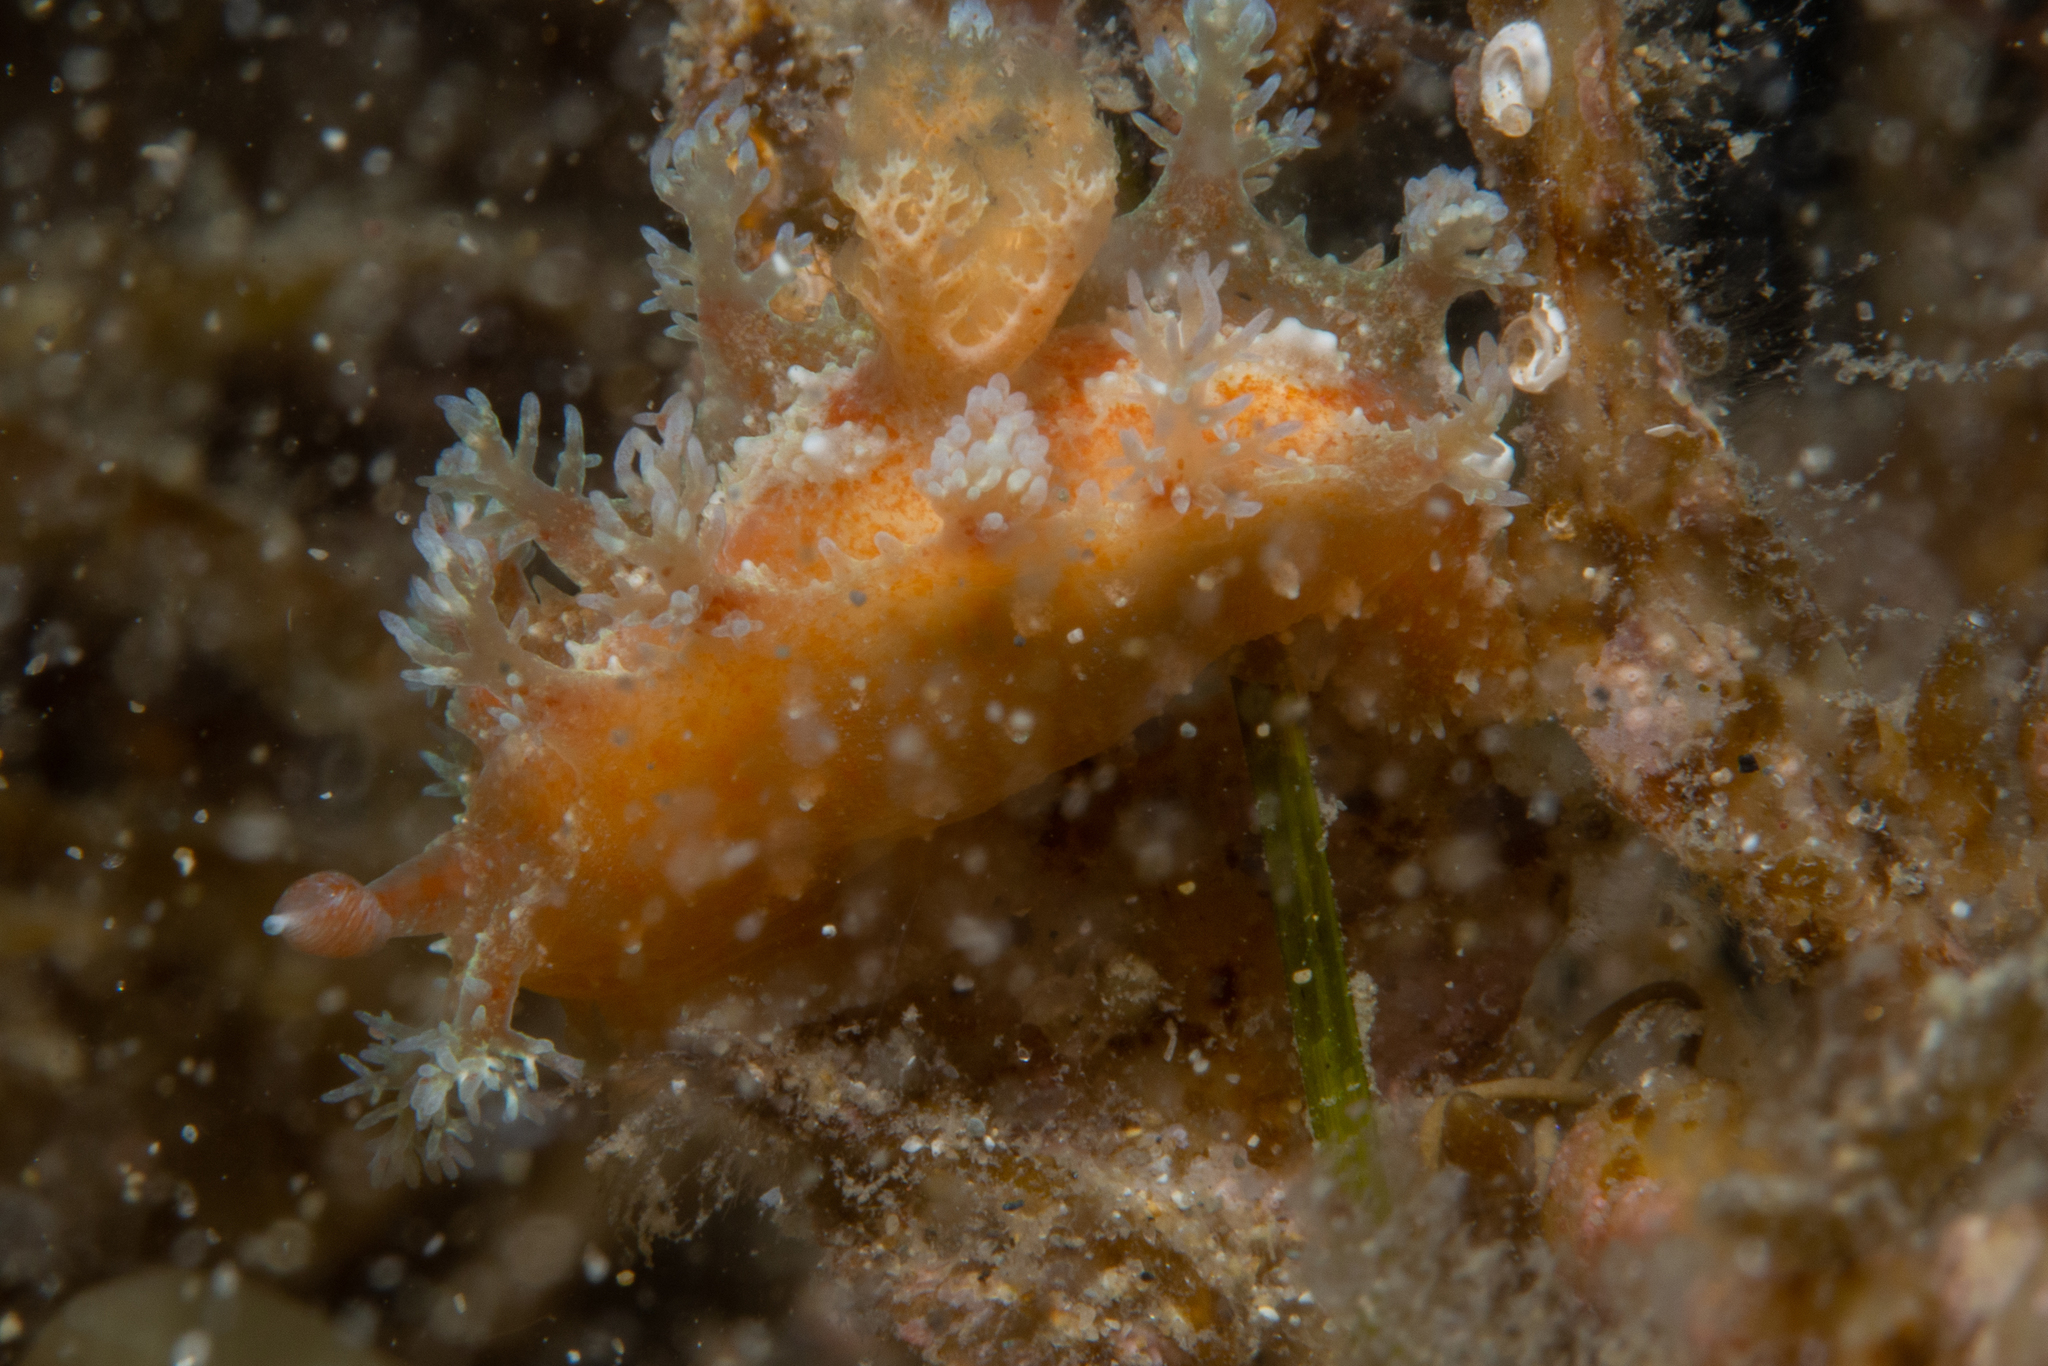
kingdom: Animalia
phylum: Mollusca
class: Gastropoda
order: Nudibranchia
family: Polyceridae
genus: Kaloplocamus
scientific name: Kaloplocamus ramosus
